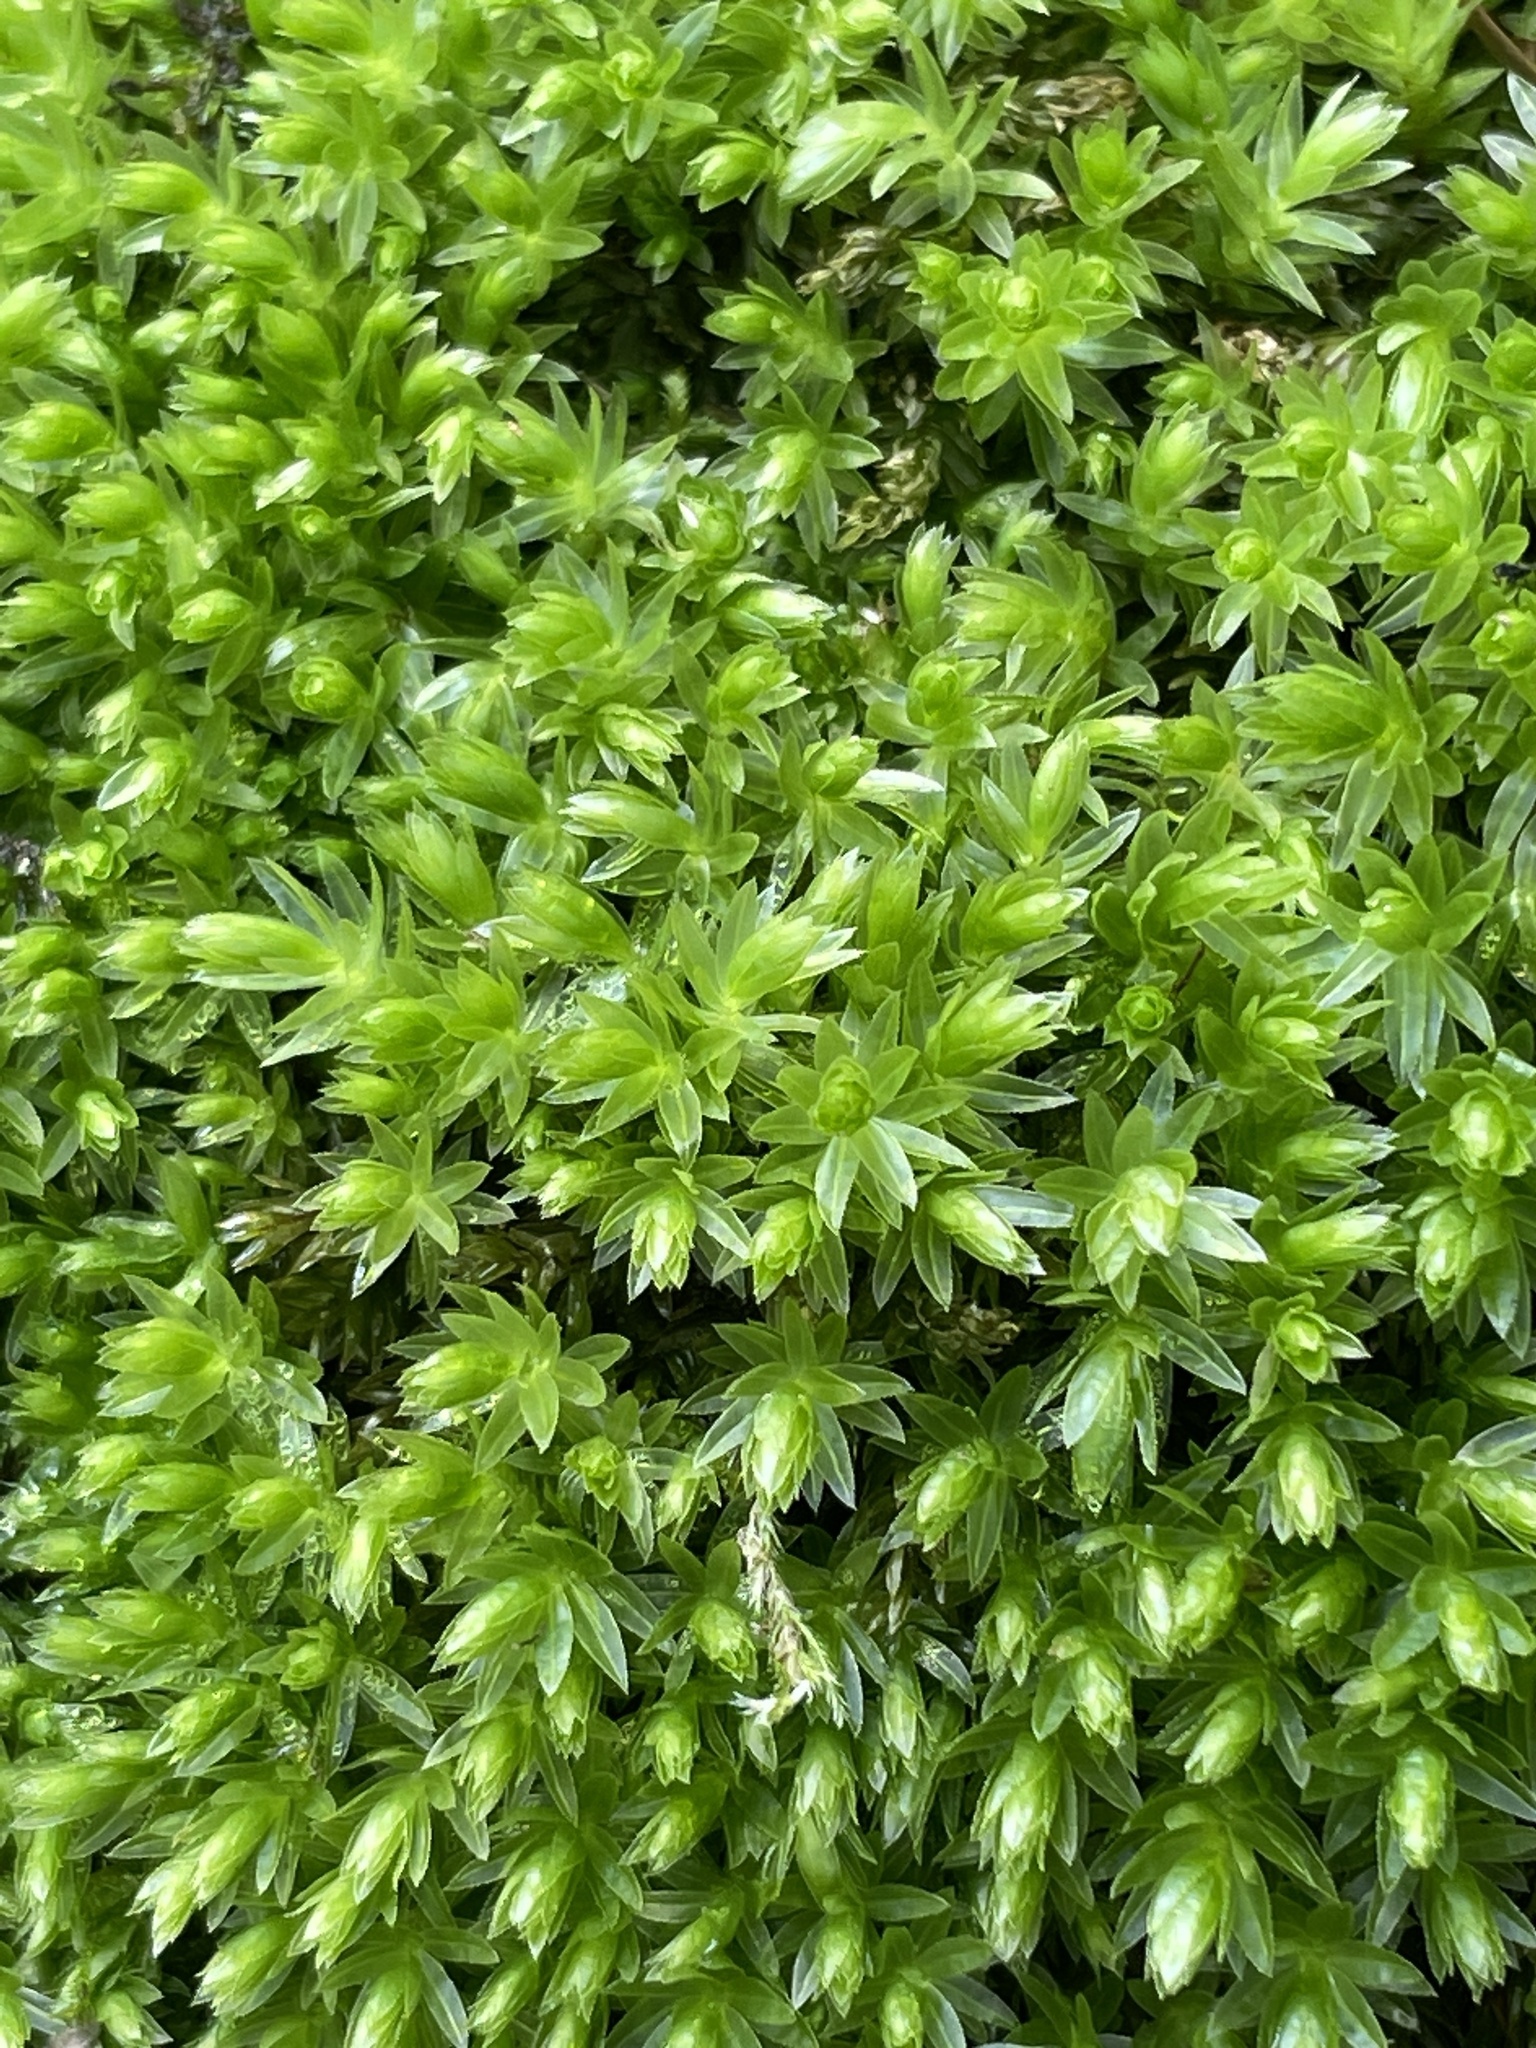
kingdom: Plantae
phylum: Bryophyta
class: Bryopsida
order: Bryales
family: Mniaceae
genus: Mnium
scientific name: Mnium hornum
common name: Swan's-neck leafy moss
